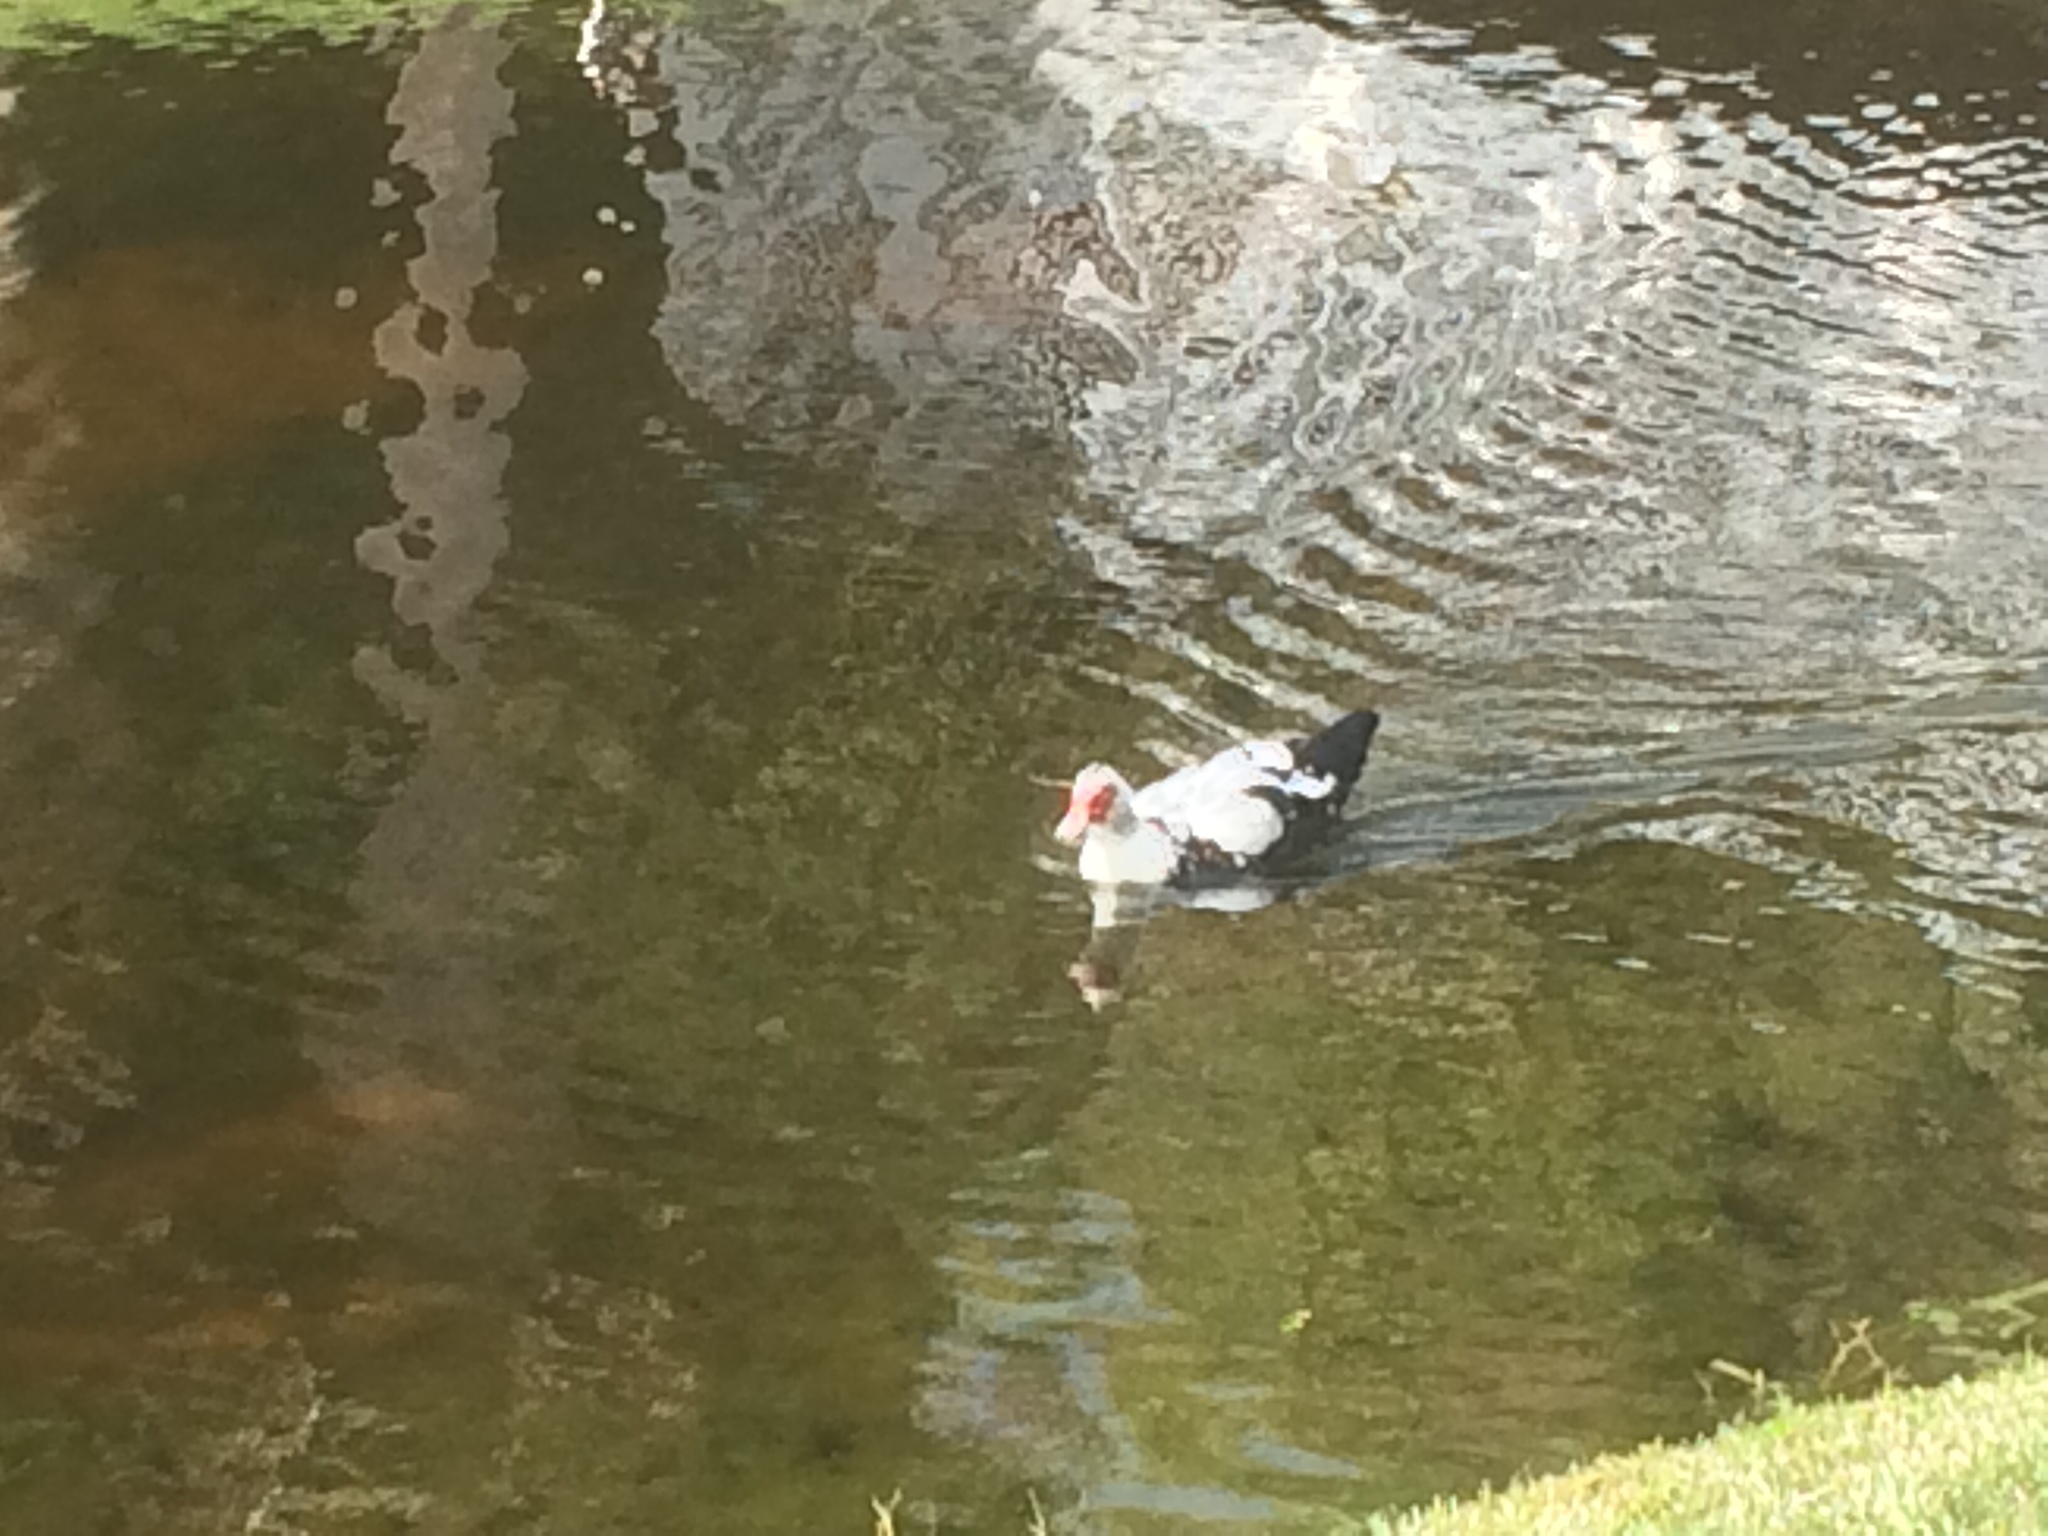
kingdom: Animalia
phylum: Chordata
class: Aves
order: Anseriformes
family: Anatidae
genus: Cairina
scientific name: Cairina moschata
